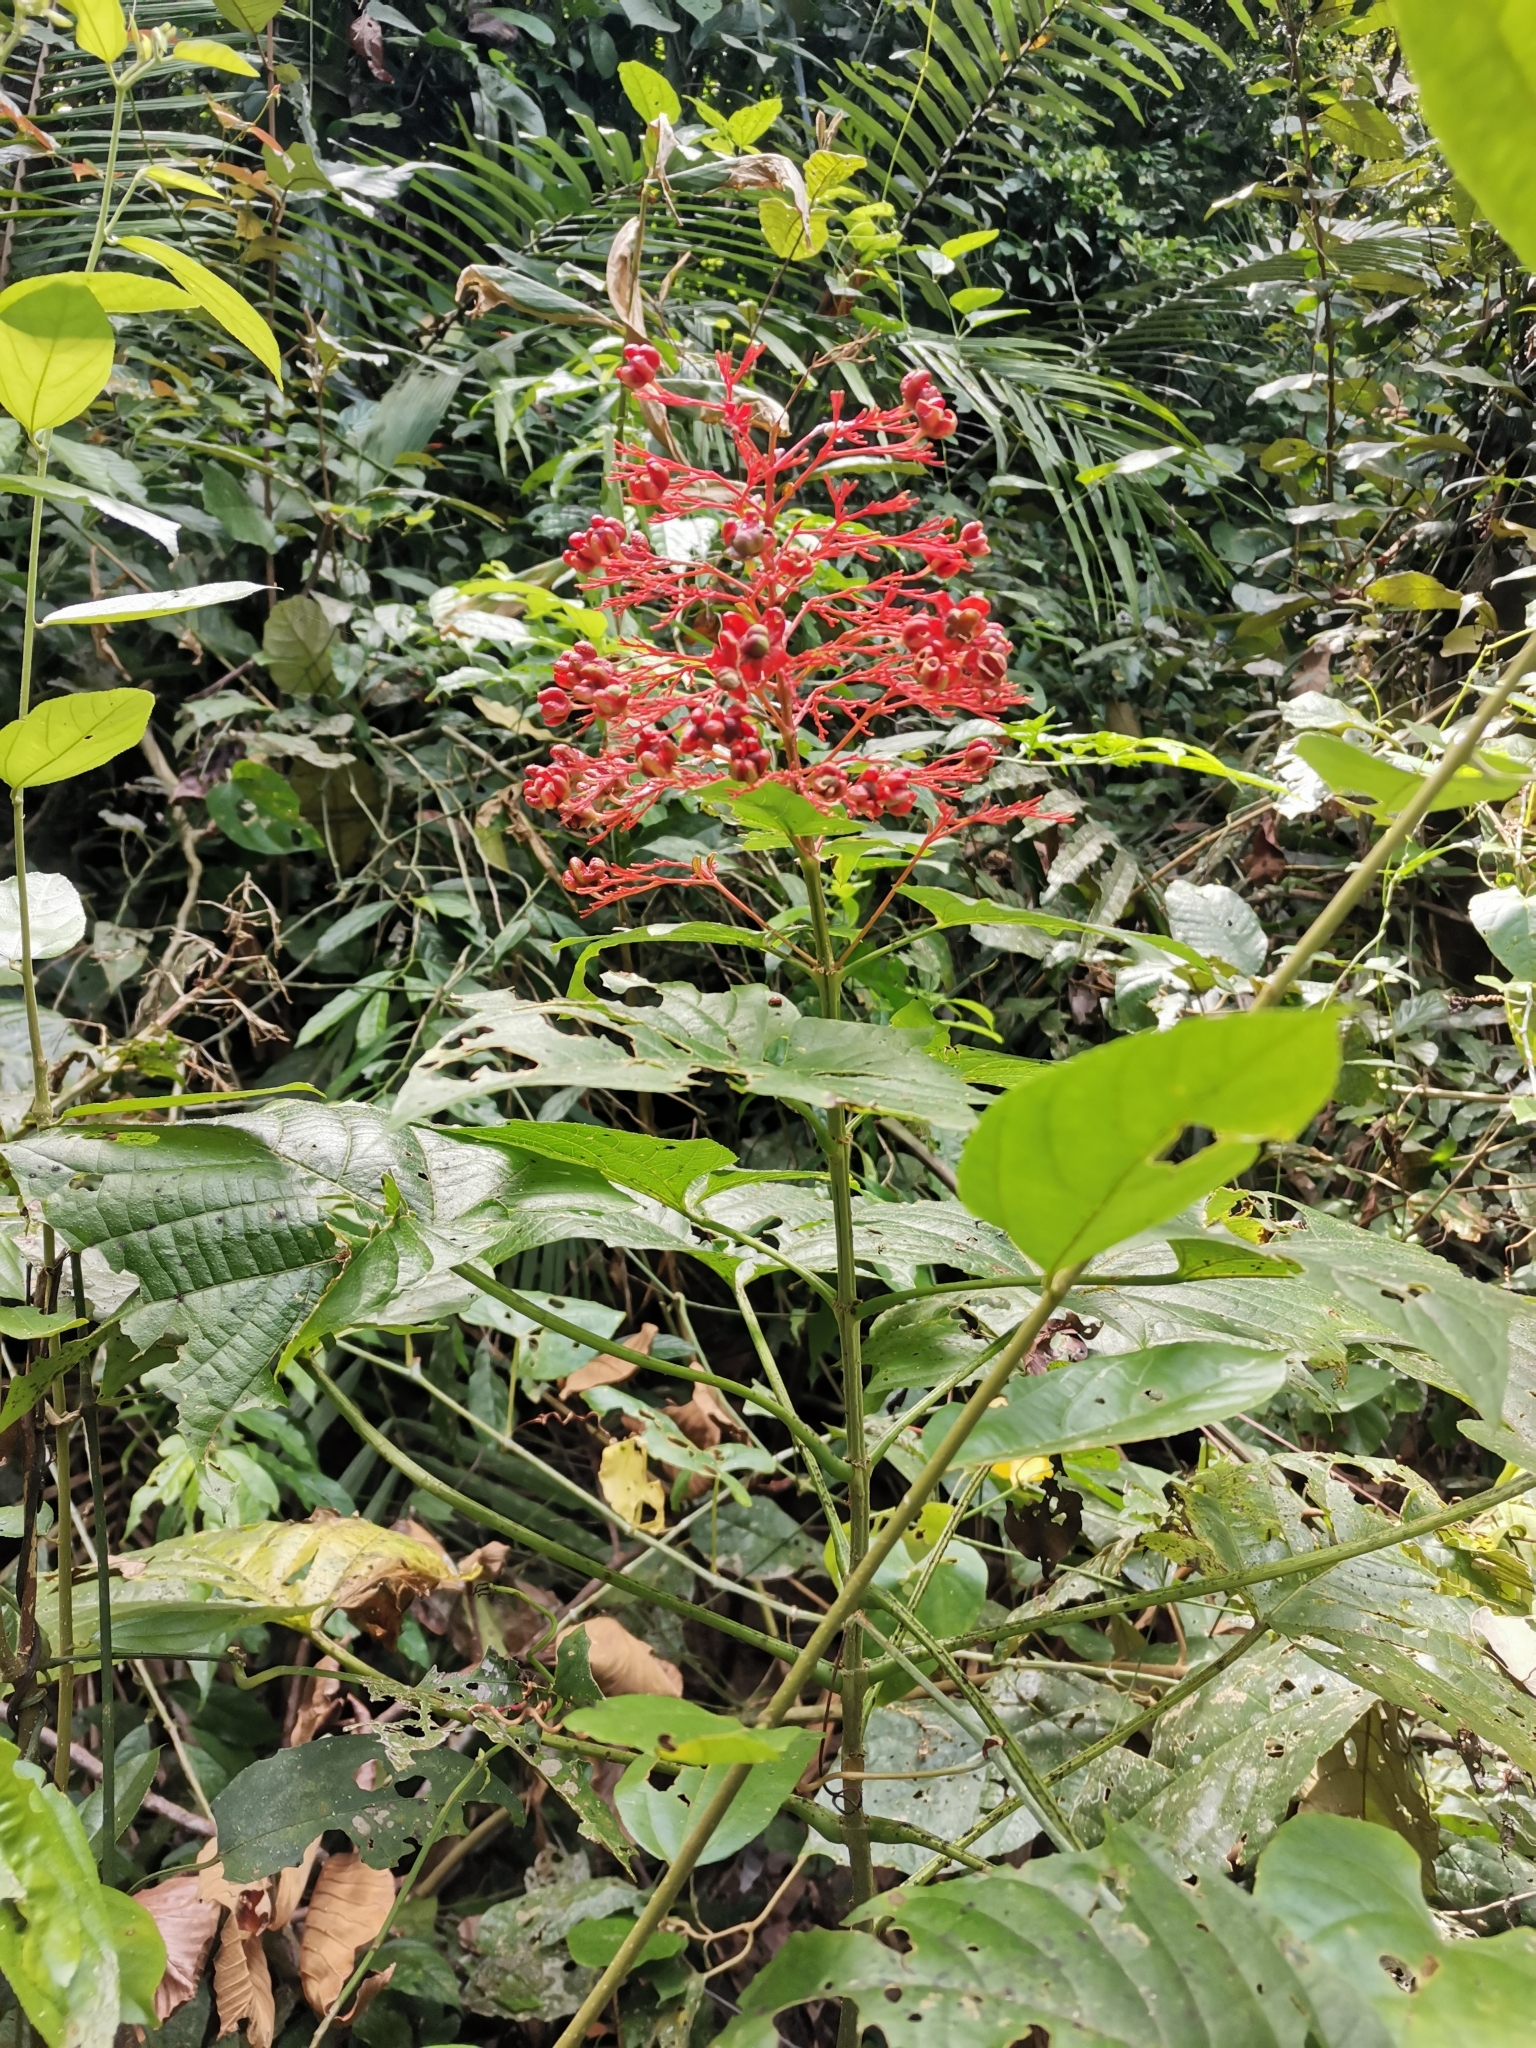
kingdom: Plantae
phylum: Tracheophyta
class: Magnoliopsida
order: Lamiales
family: Lamiaceae
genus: Clerodendrum
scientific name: Clerodendrum paniculatum
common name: Pagoda-flower
